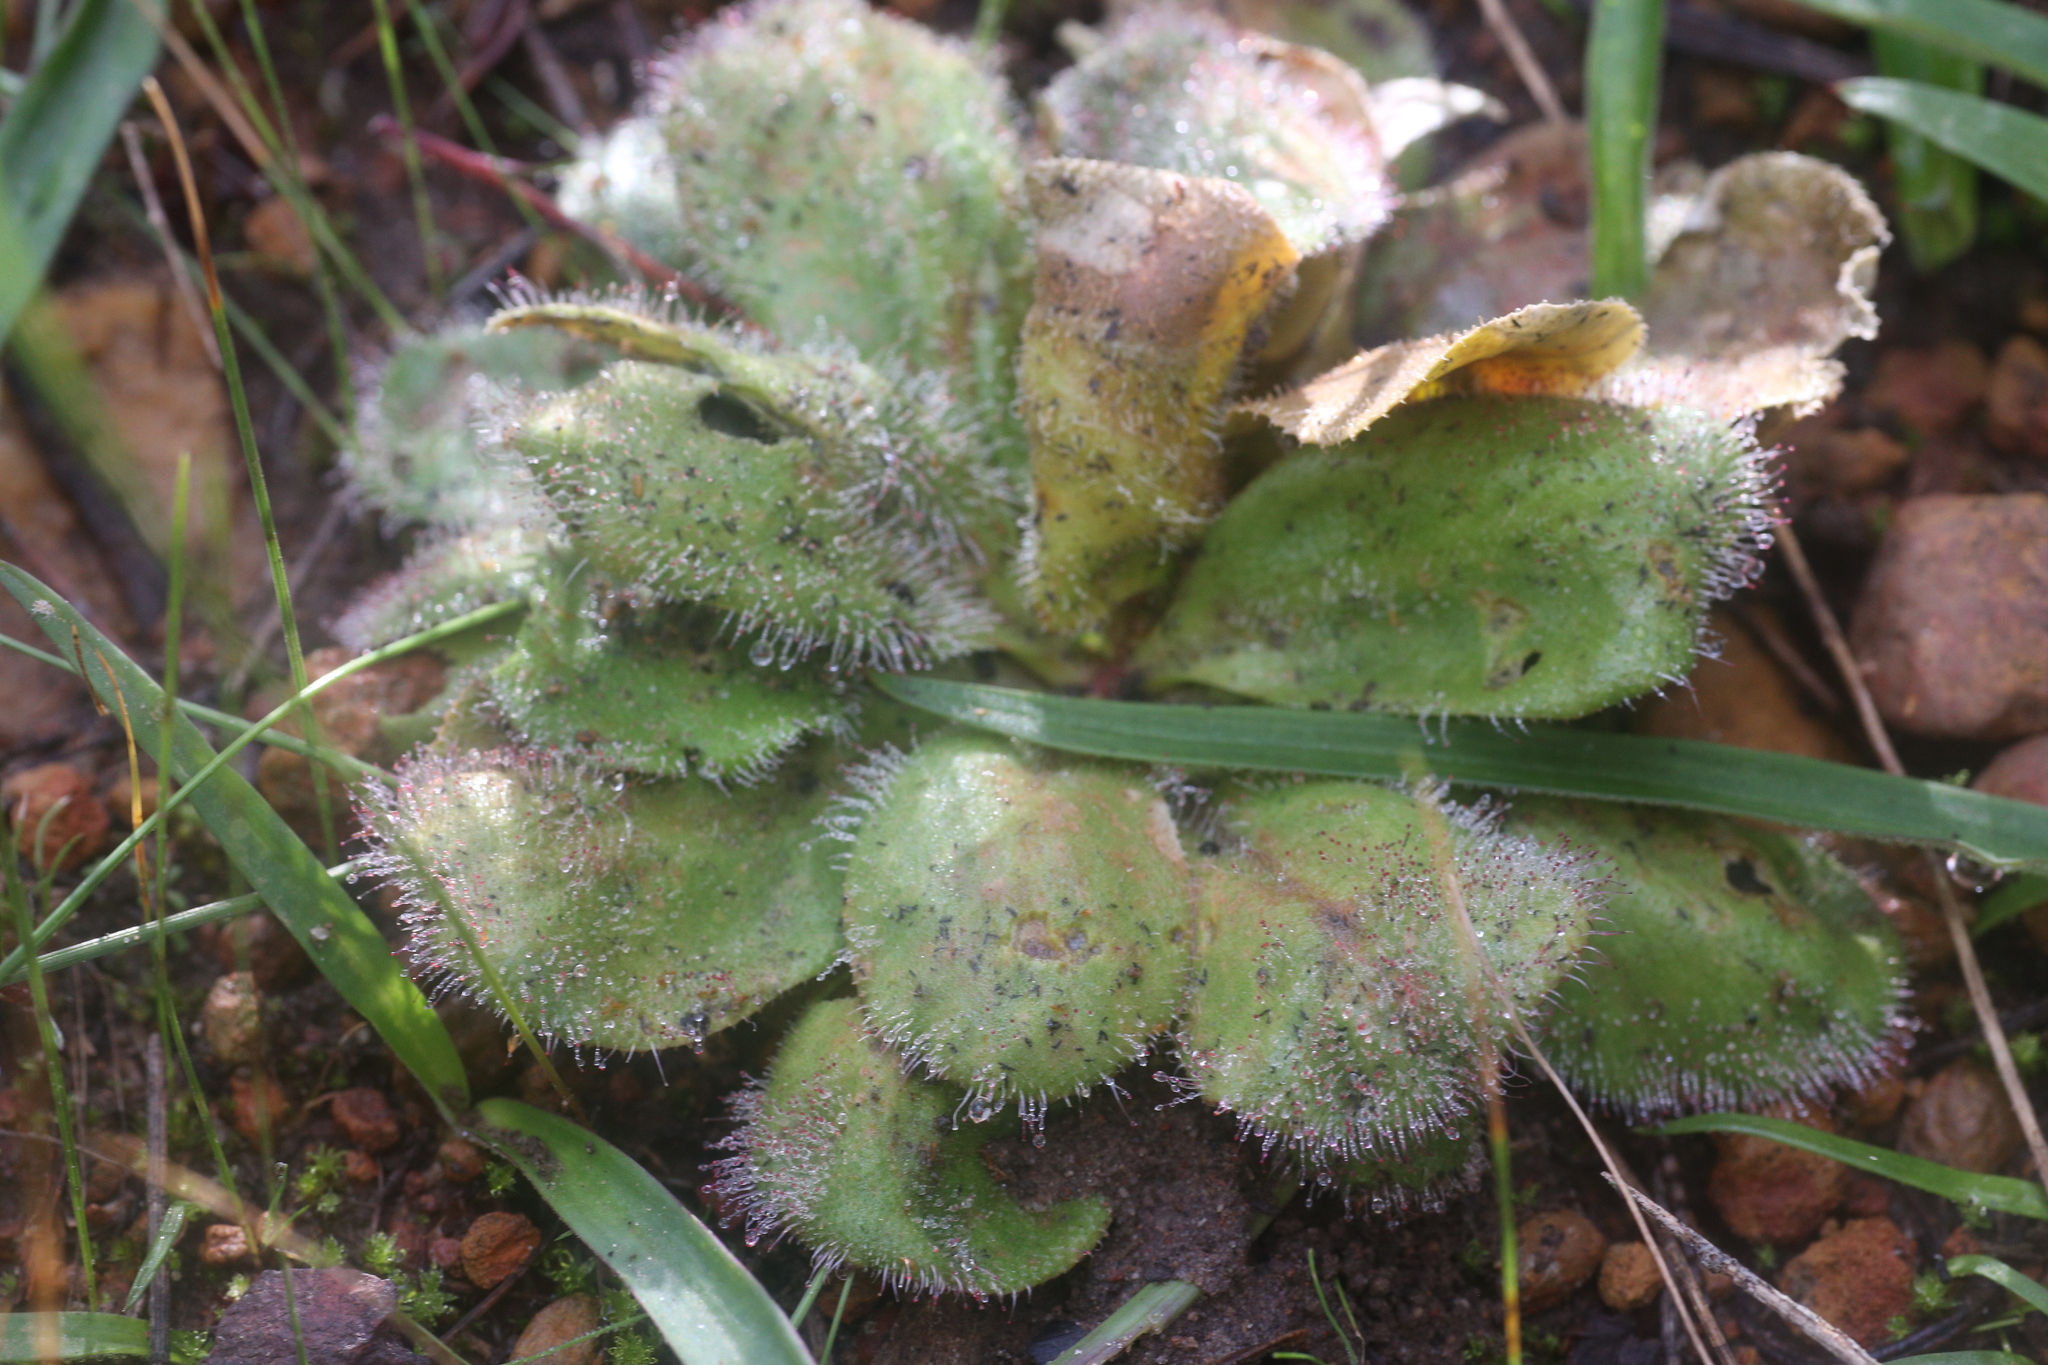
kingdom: Plantae
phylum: Tracheophyta
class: Magnoliopsida
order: Caryophyllales
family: Droseraceae
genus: Drosera
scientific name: Drosera erythrorhiza
